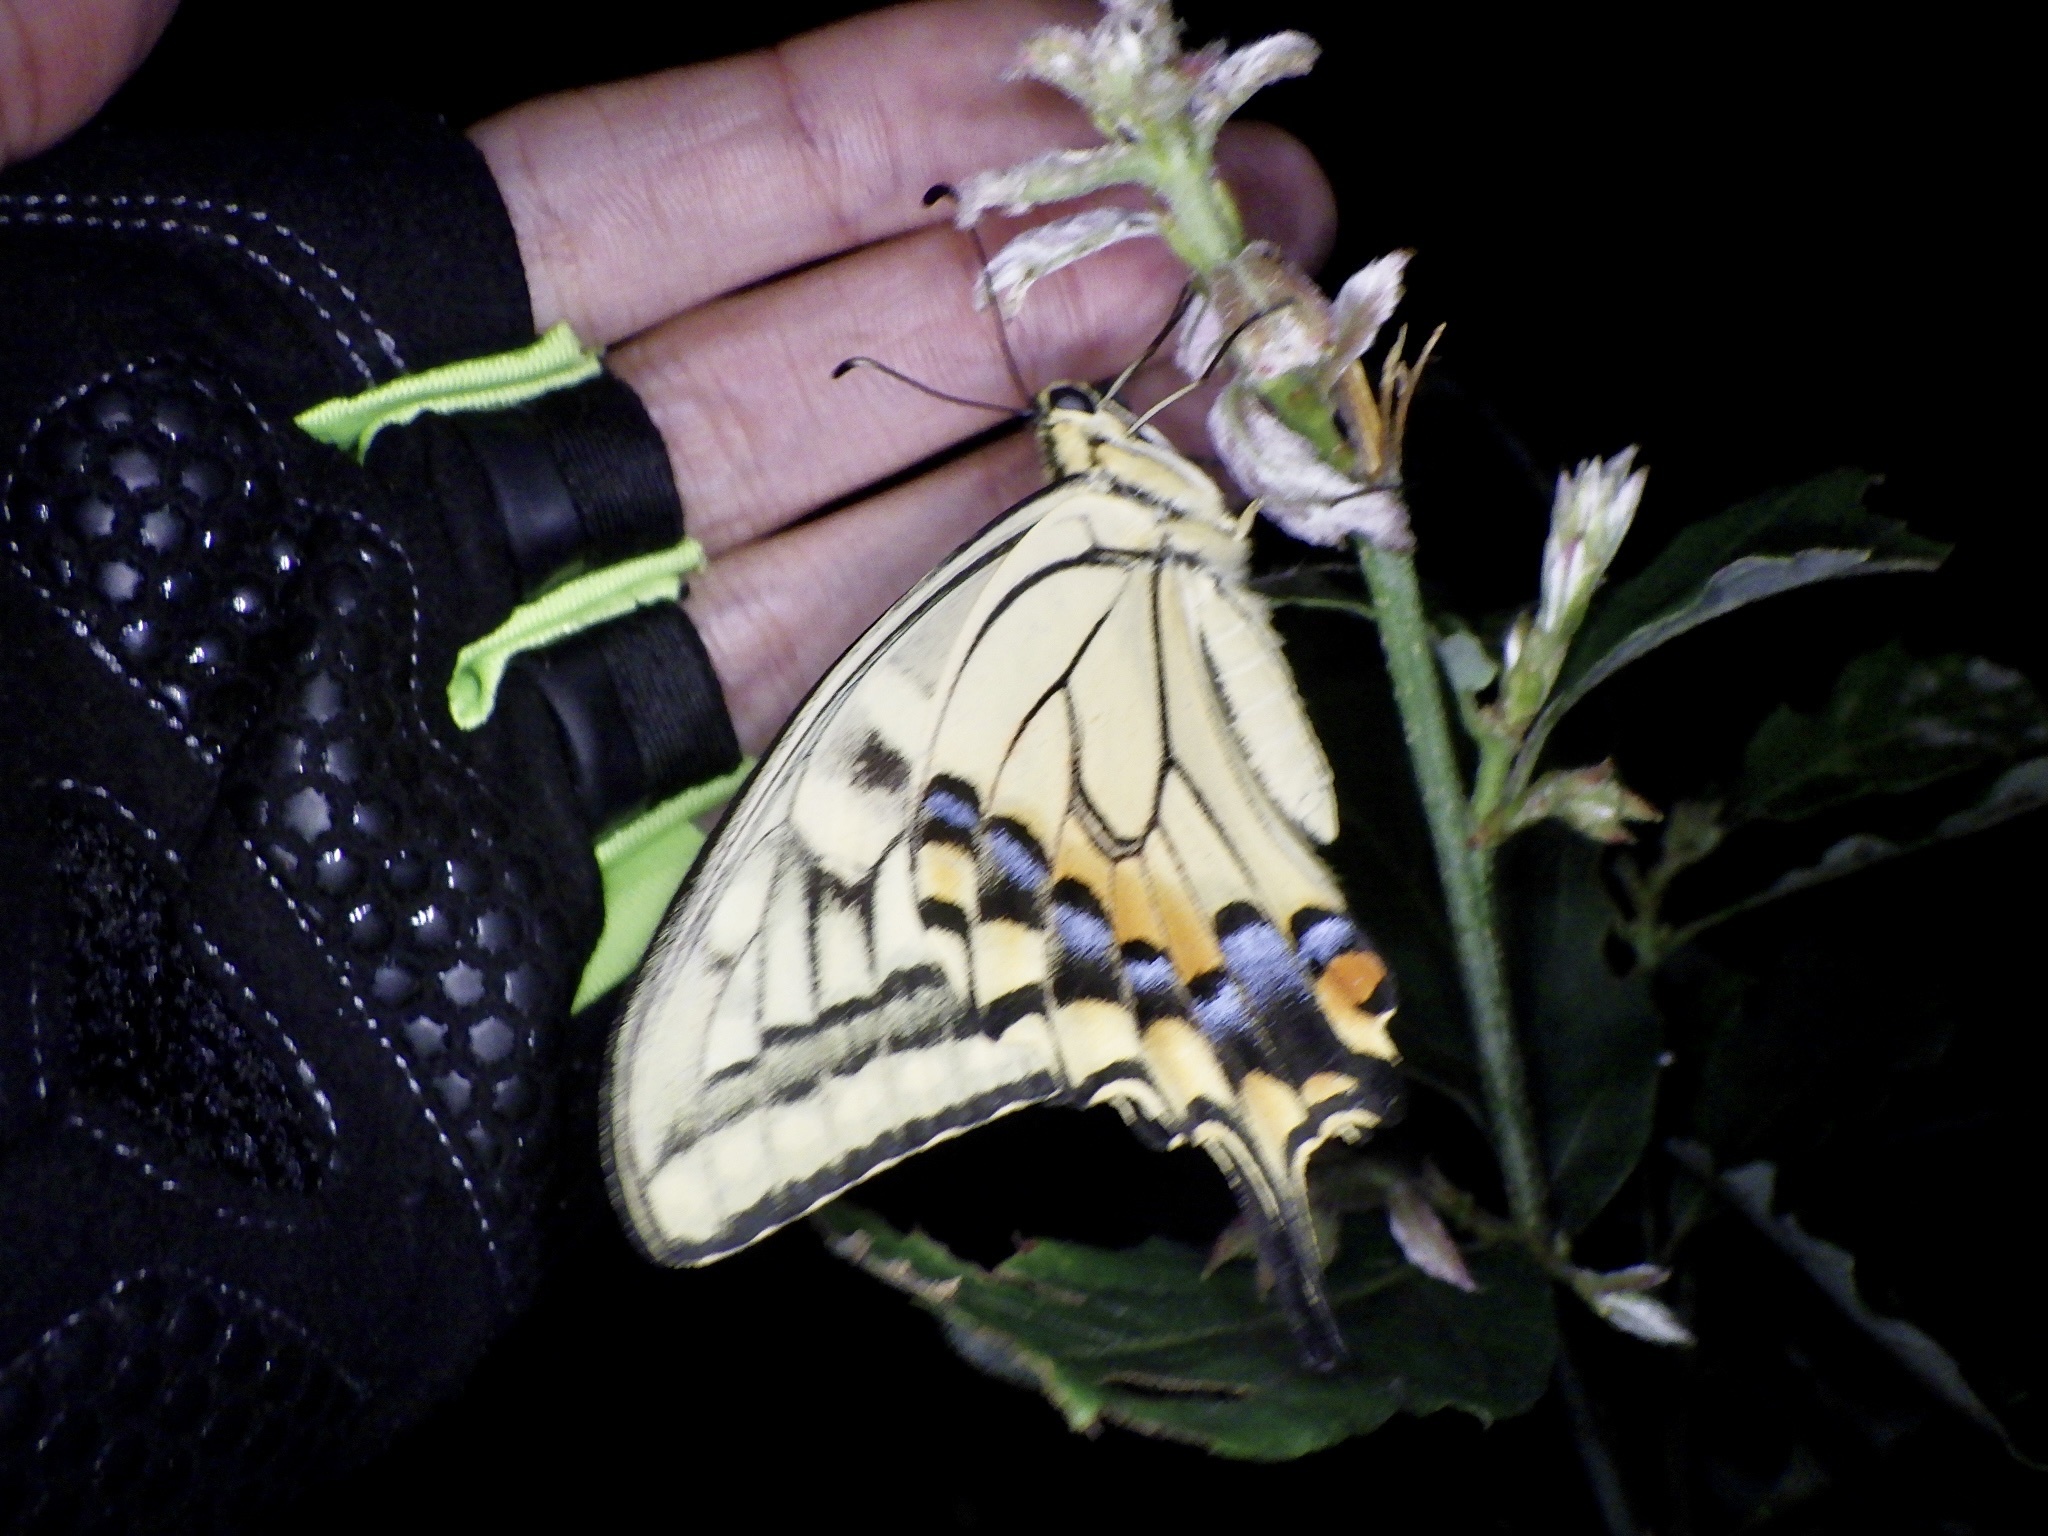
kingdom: Animalia
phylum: Arthropoda
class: Insecta
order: Lepidoptera
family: Papilionidae
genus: Papilio
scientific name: Papilio machaon
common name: Swallowtail
